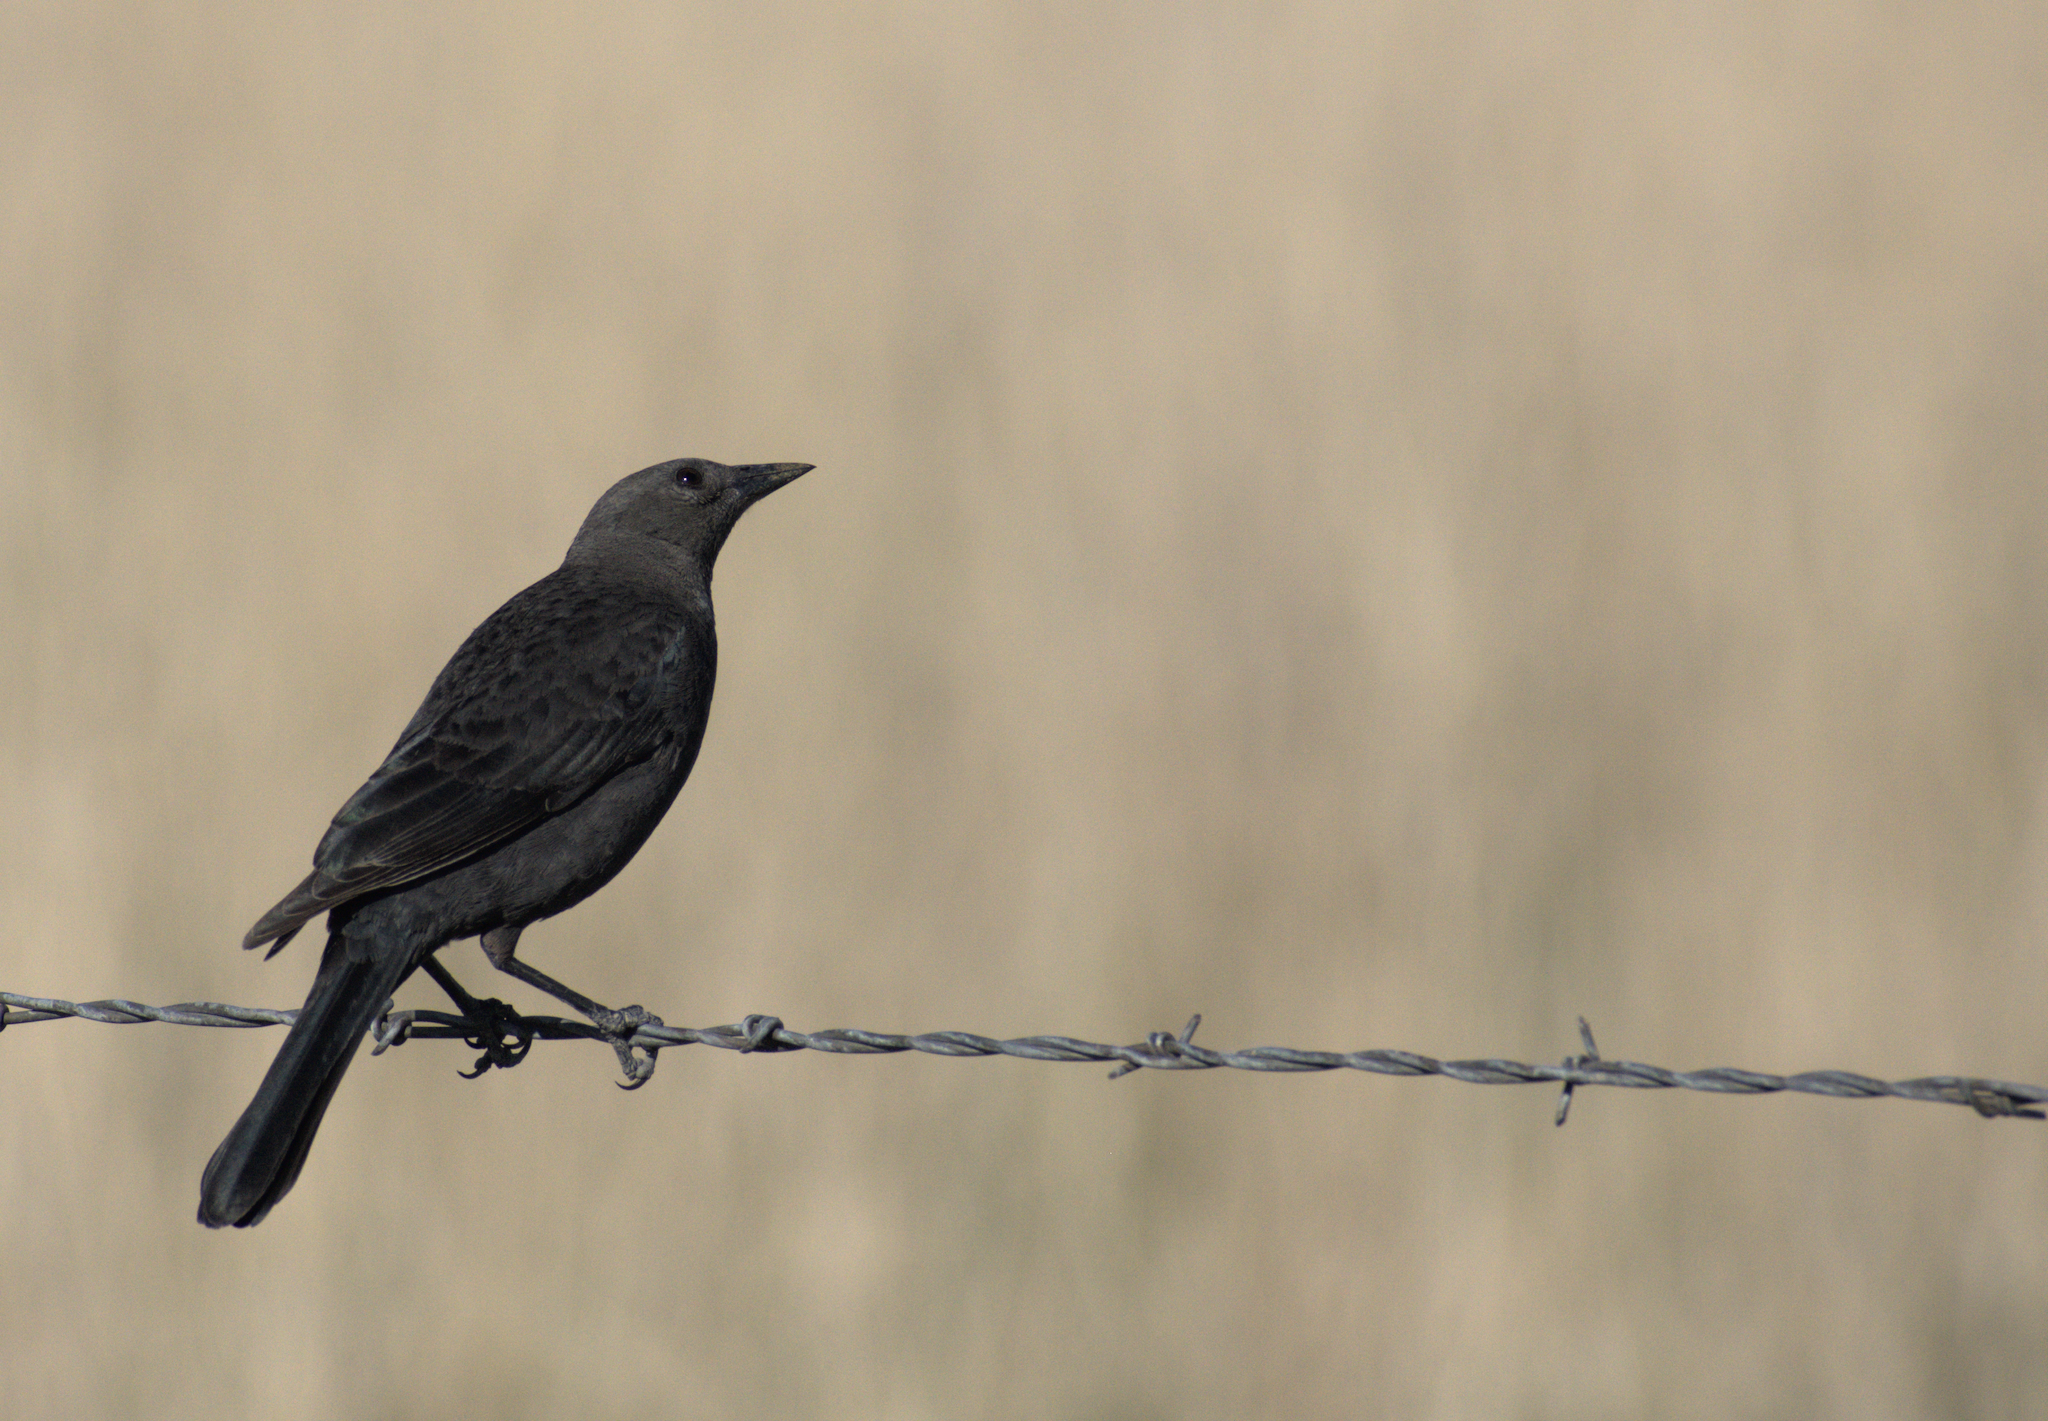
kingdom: Animalia
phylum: Chordata
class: Aves
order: Passeriformes
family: Icteridae
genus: Euphagus
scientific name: Euphagus cyanocephalus
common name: Brewer's blackbird
